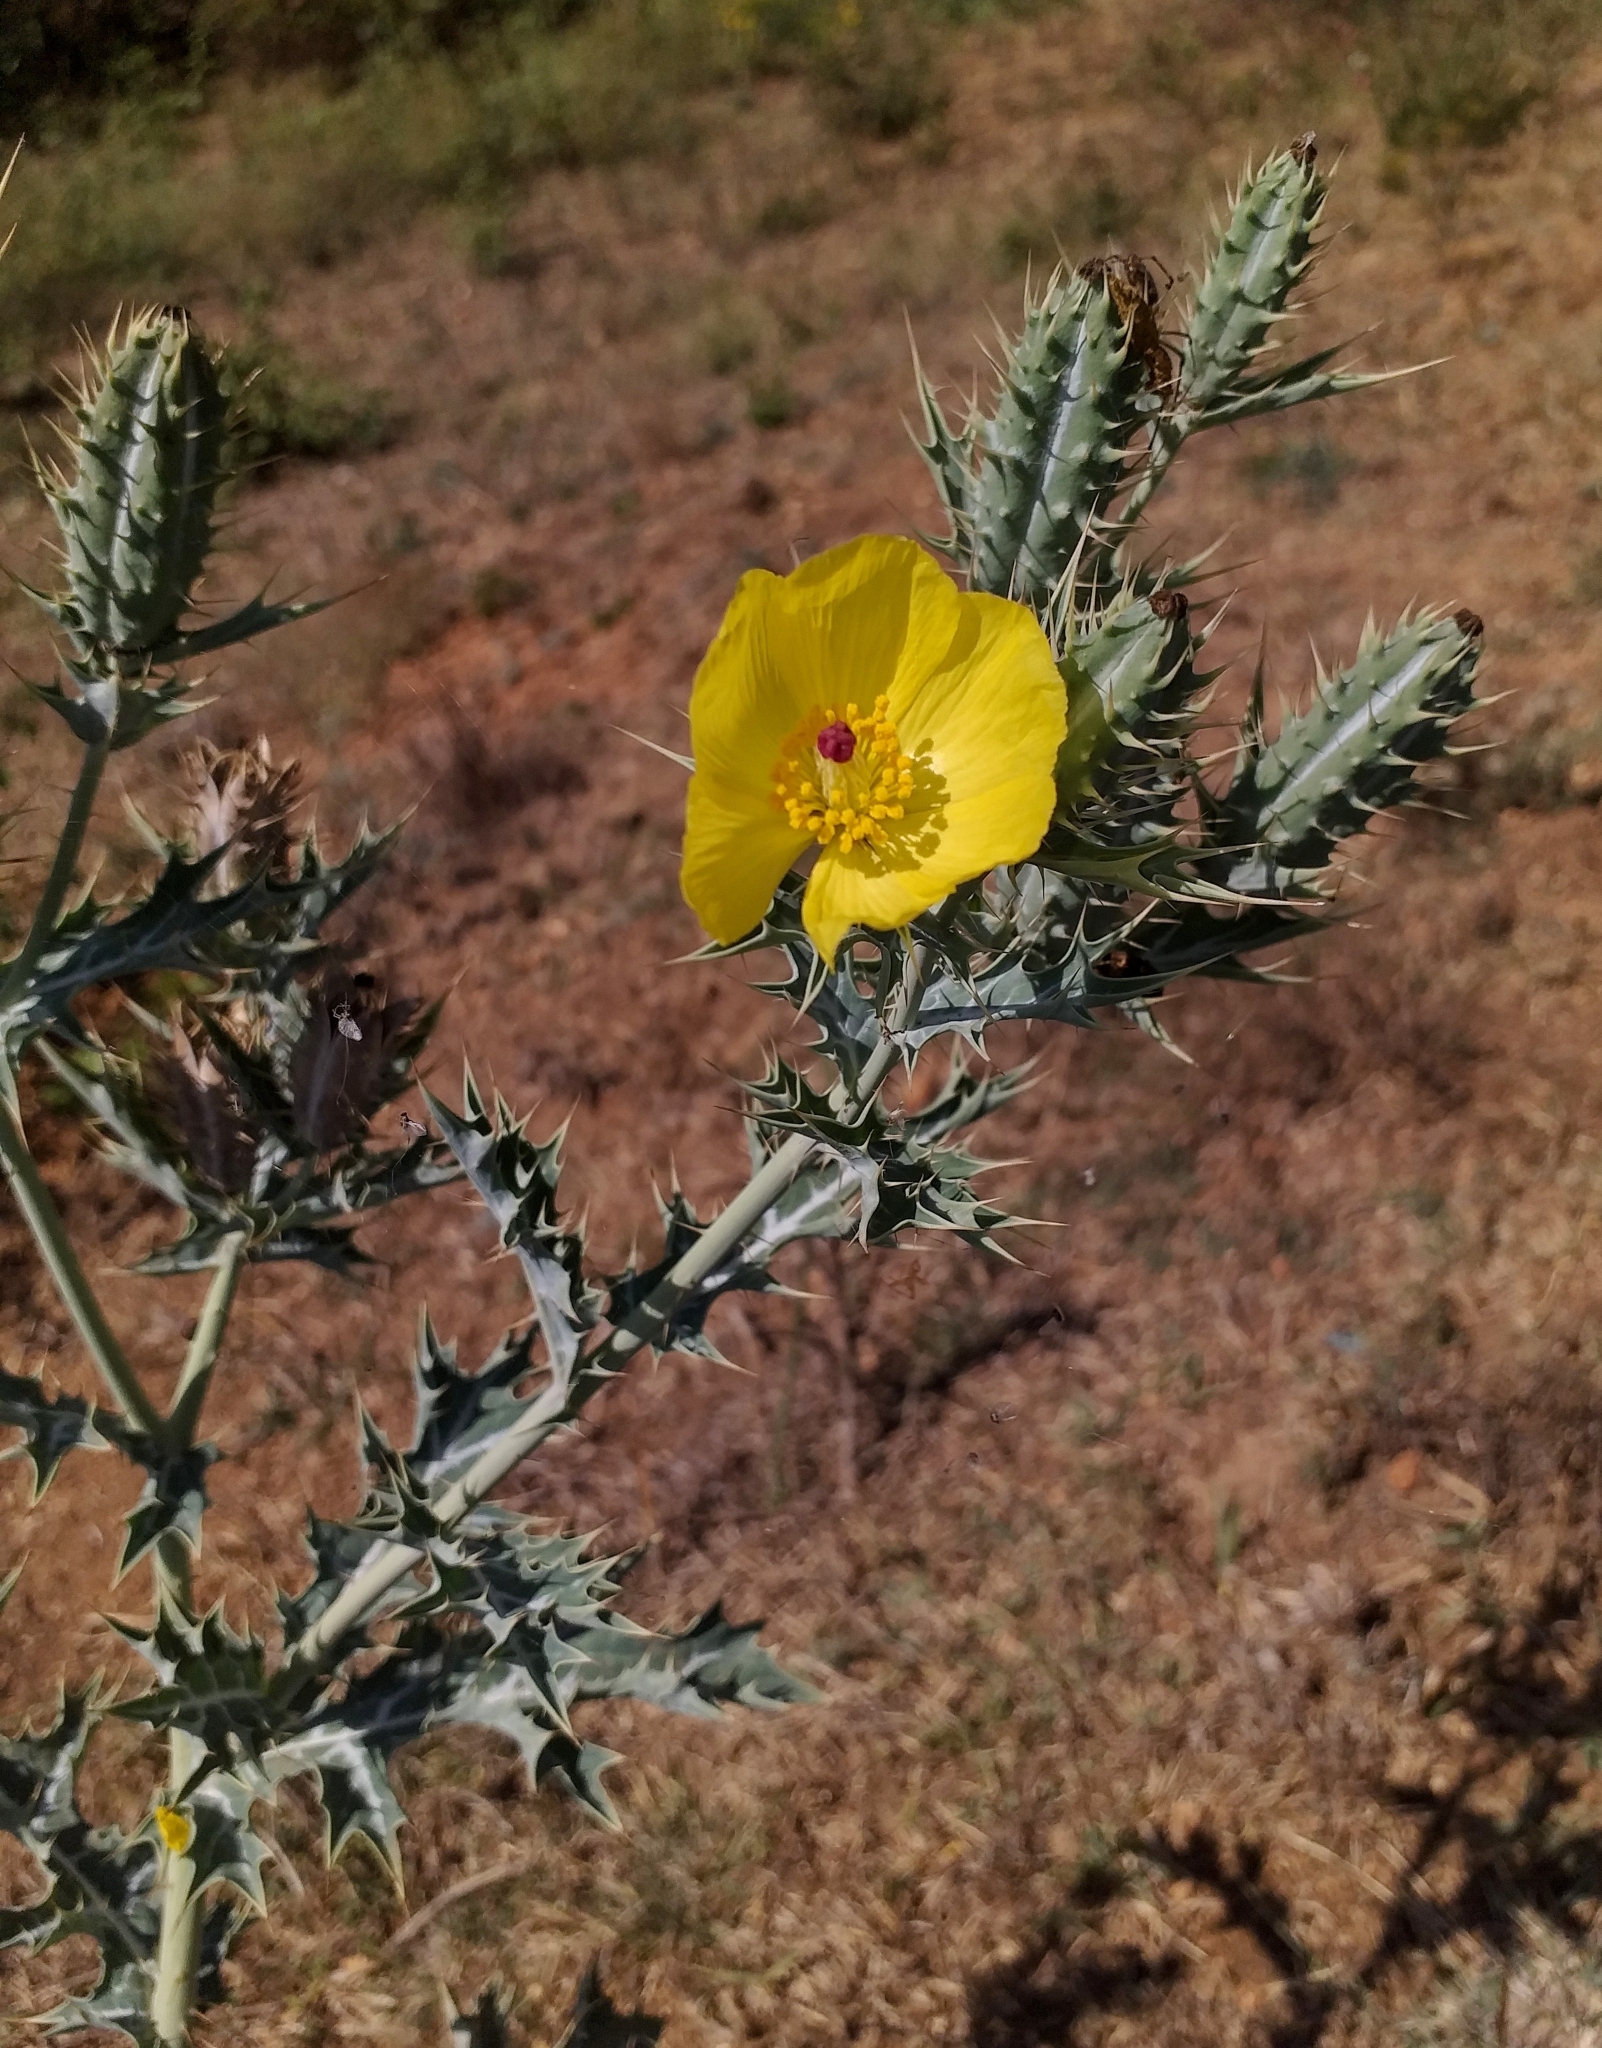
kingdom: Plantae
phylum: Tracheophyta
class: Magnoliopsida
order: Ranunculales
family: Papaveraceae
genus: Argemone
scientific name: Argemone mexicana
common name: Mexican poppy
